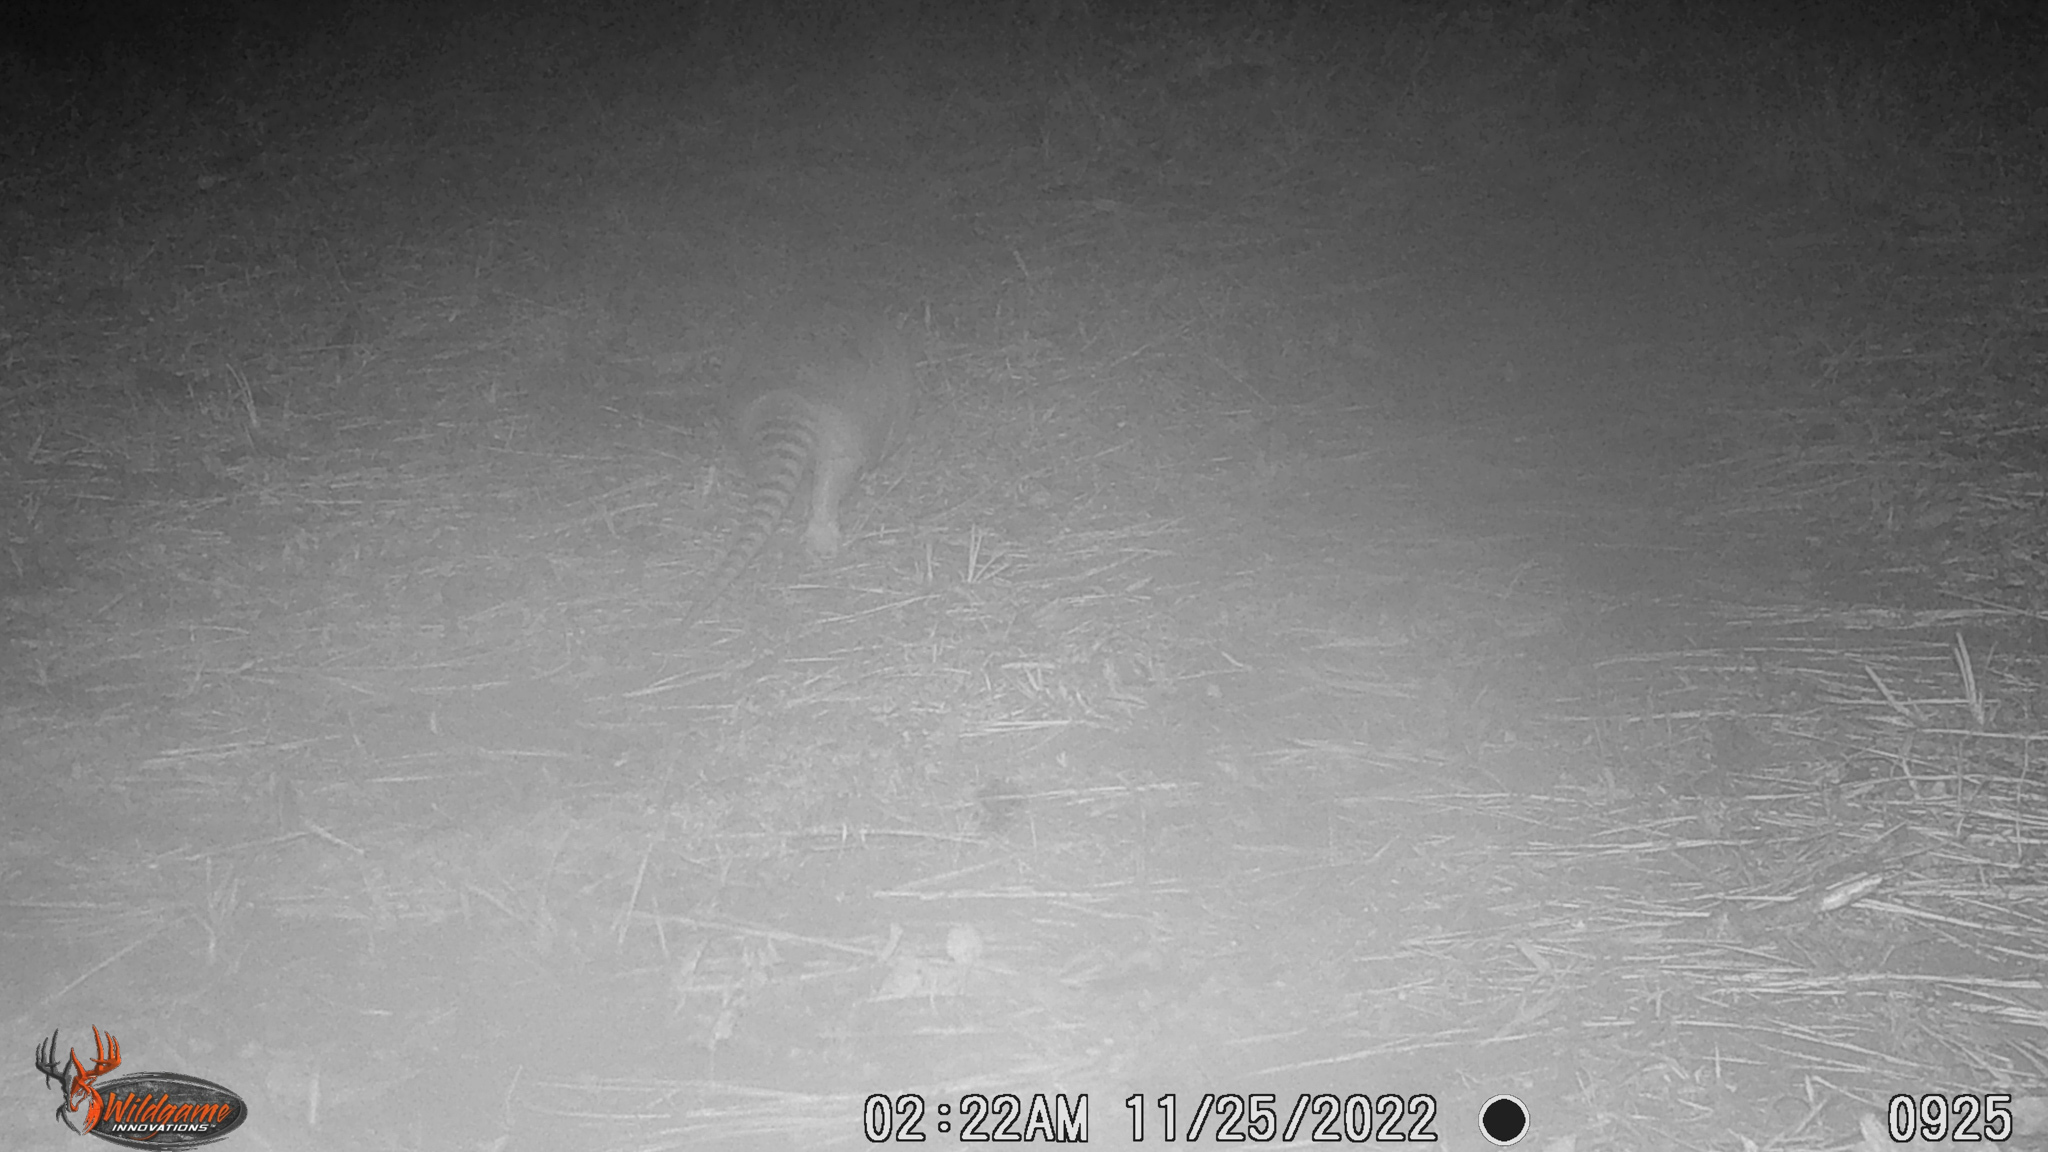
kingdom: Animalia
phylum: Chordata
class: Mammalia
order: Cingulata
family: Dasypodidae
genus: Dasypus
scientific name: Dasypus novemcinctus
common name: Nine-banded armadillo
